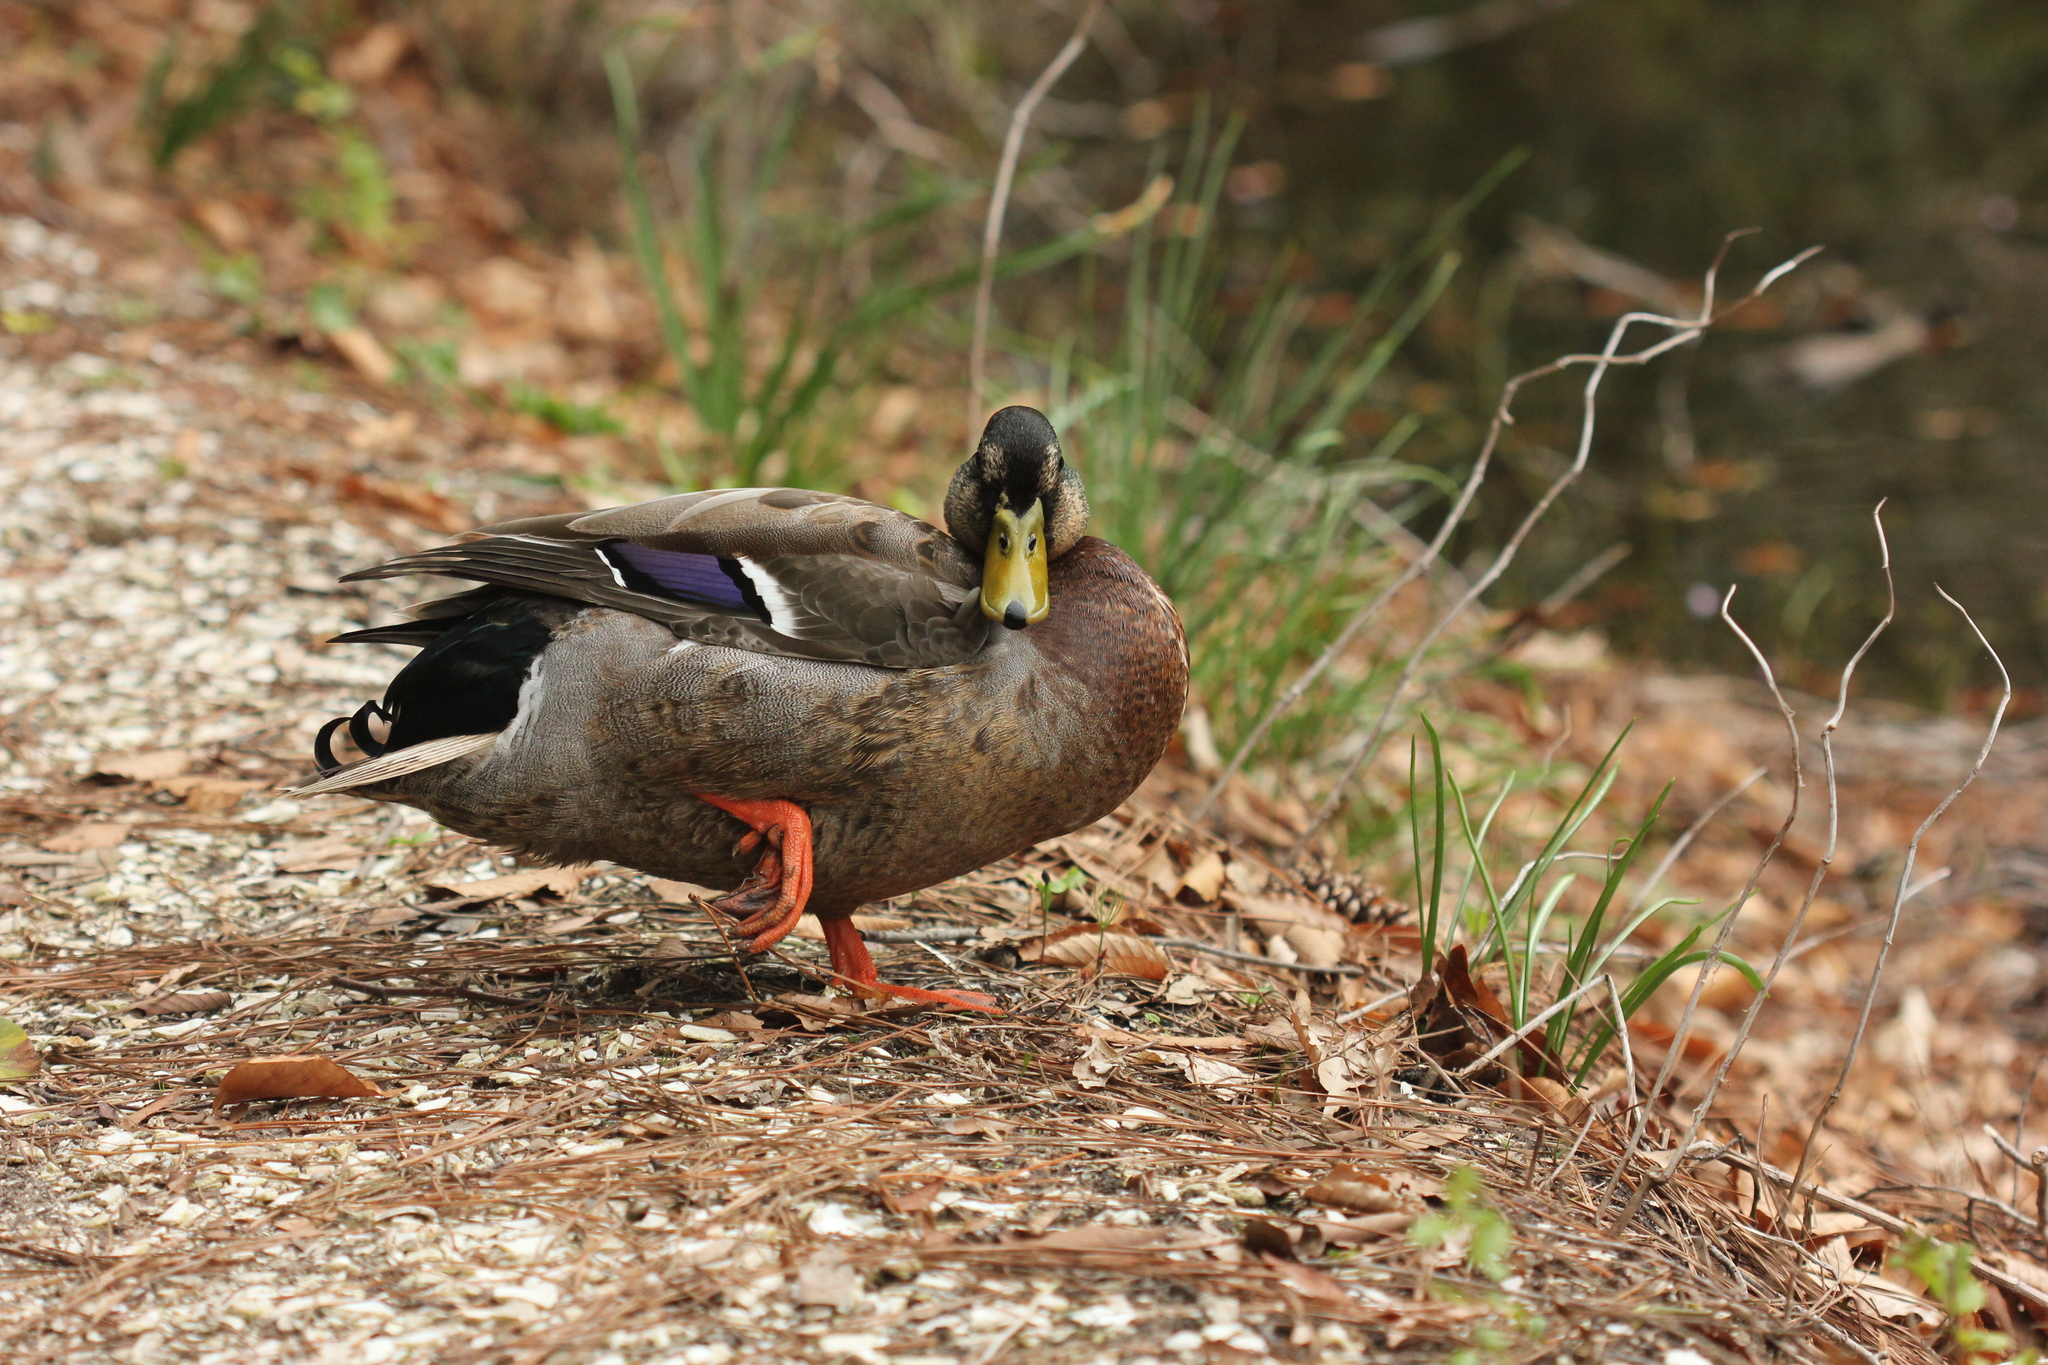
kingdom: Animalia
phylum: Chordata
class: Aves
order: Anseriformes
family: Anatidae
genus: Anas
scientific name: Anas platyrhynchos
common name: Mallard
